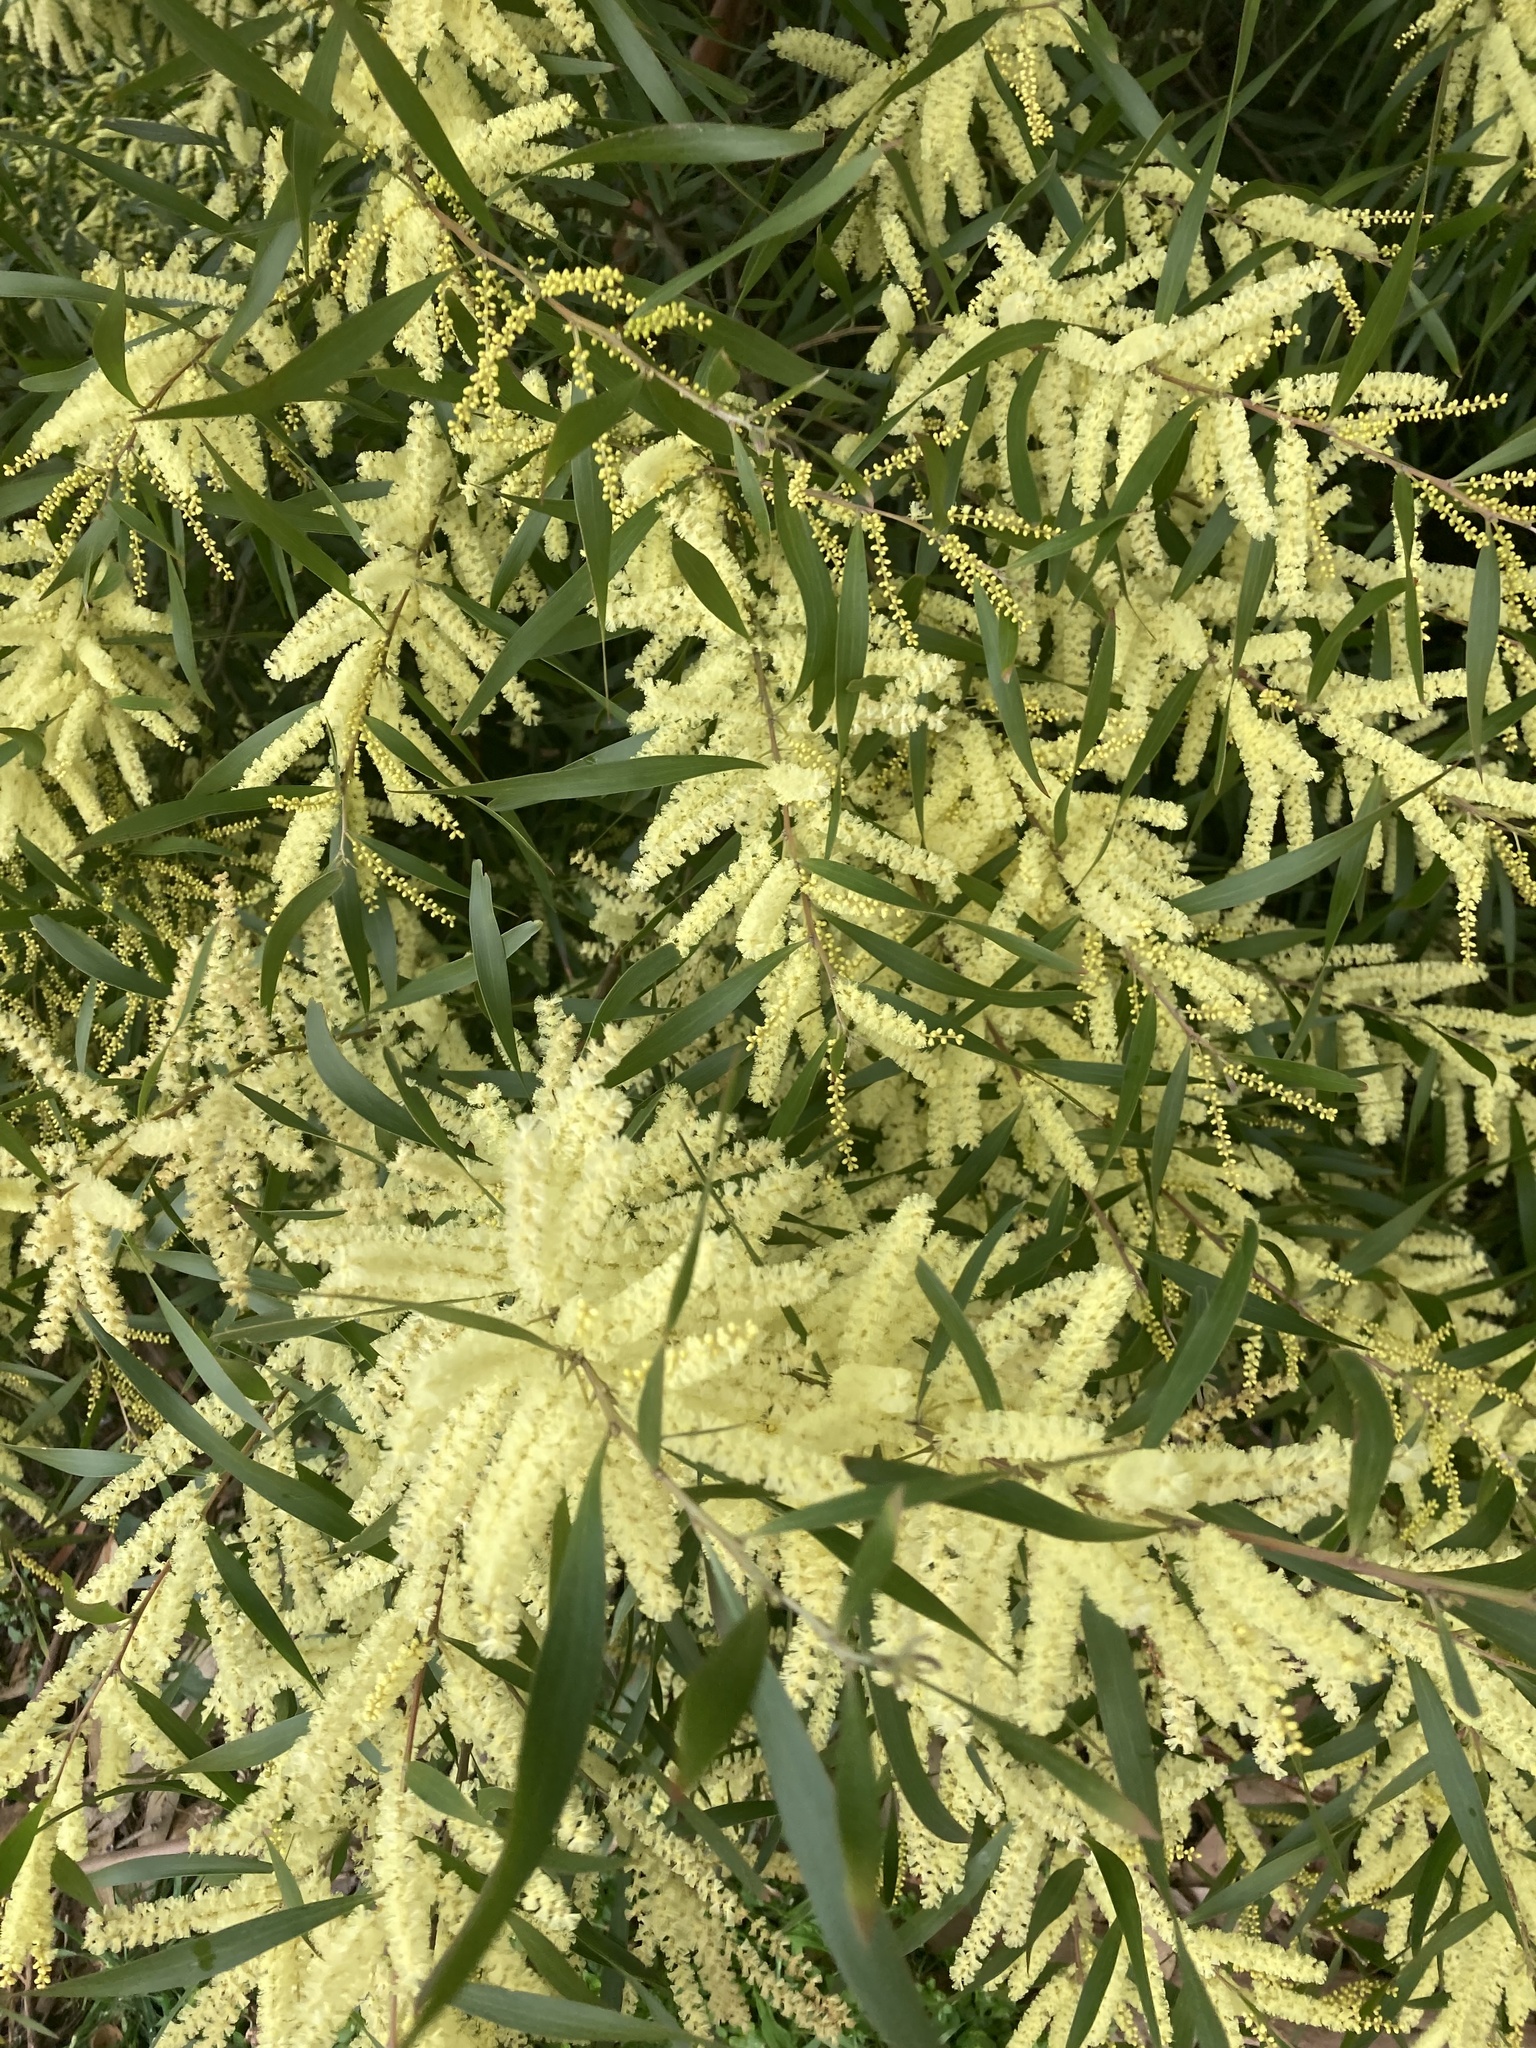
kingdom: Plantae
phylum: Tracheophyta
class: Magnoliopsida
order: Fabales
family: Fabaceae
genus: Acacia
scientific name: Acacia floribunda
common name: Gossamer wattle
